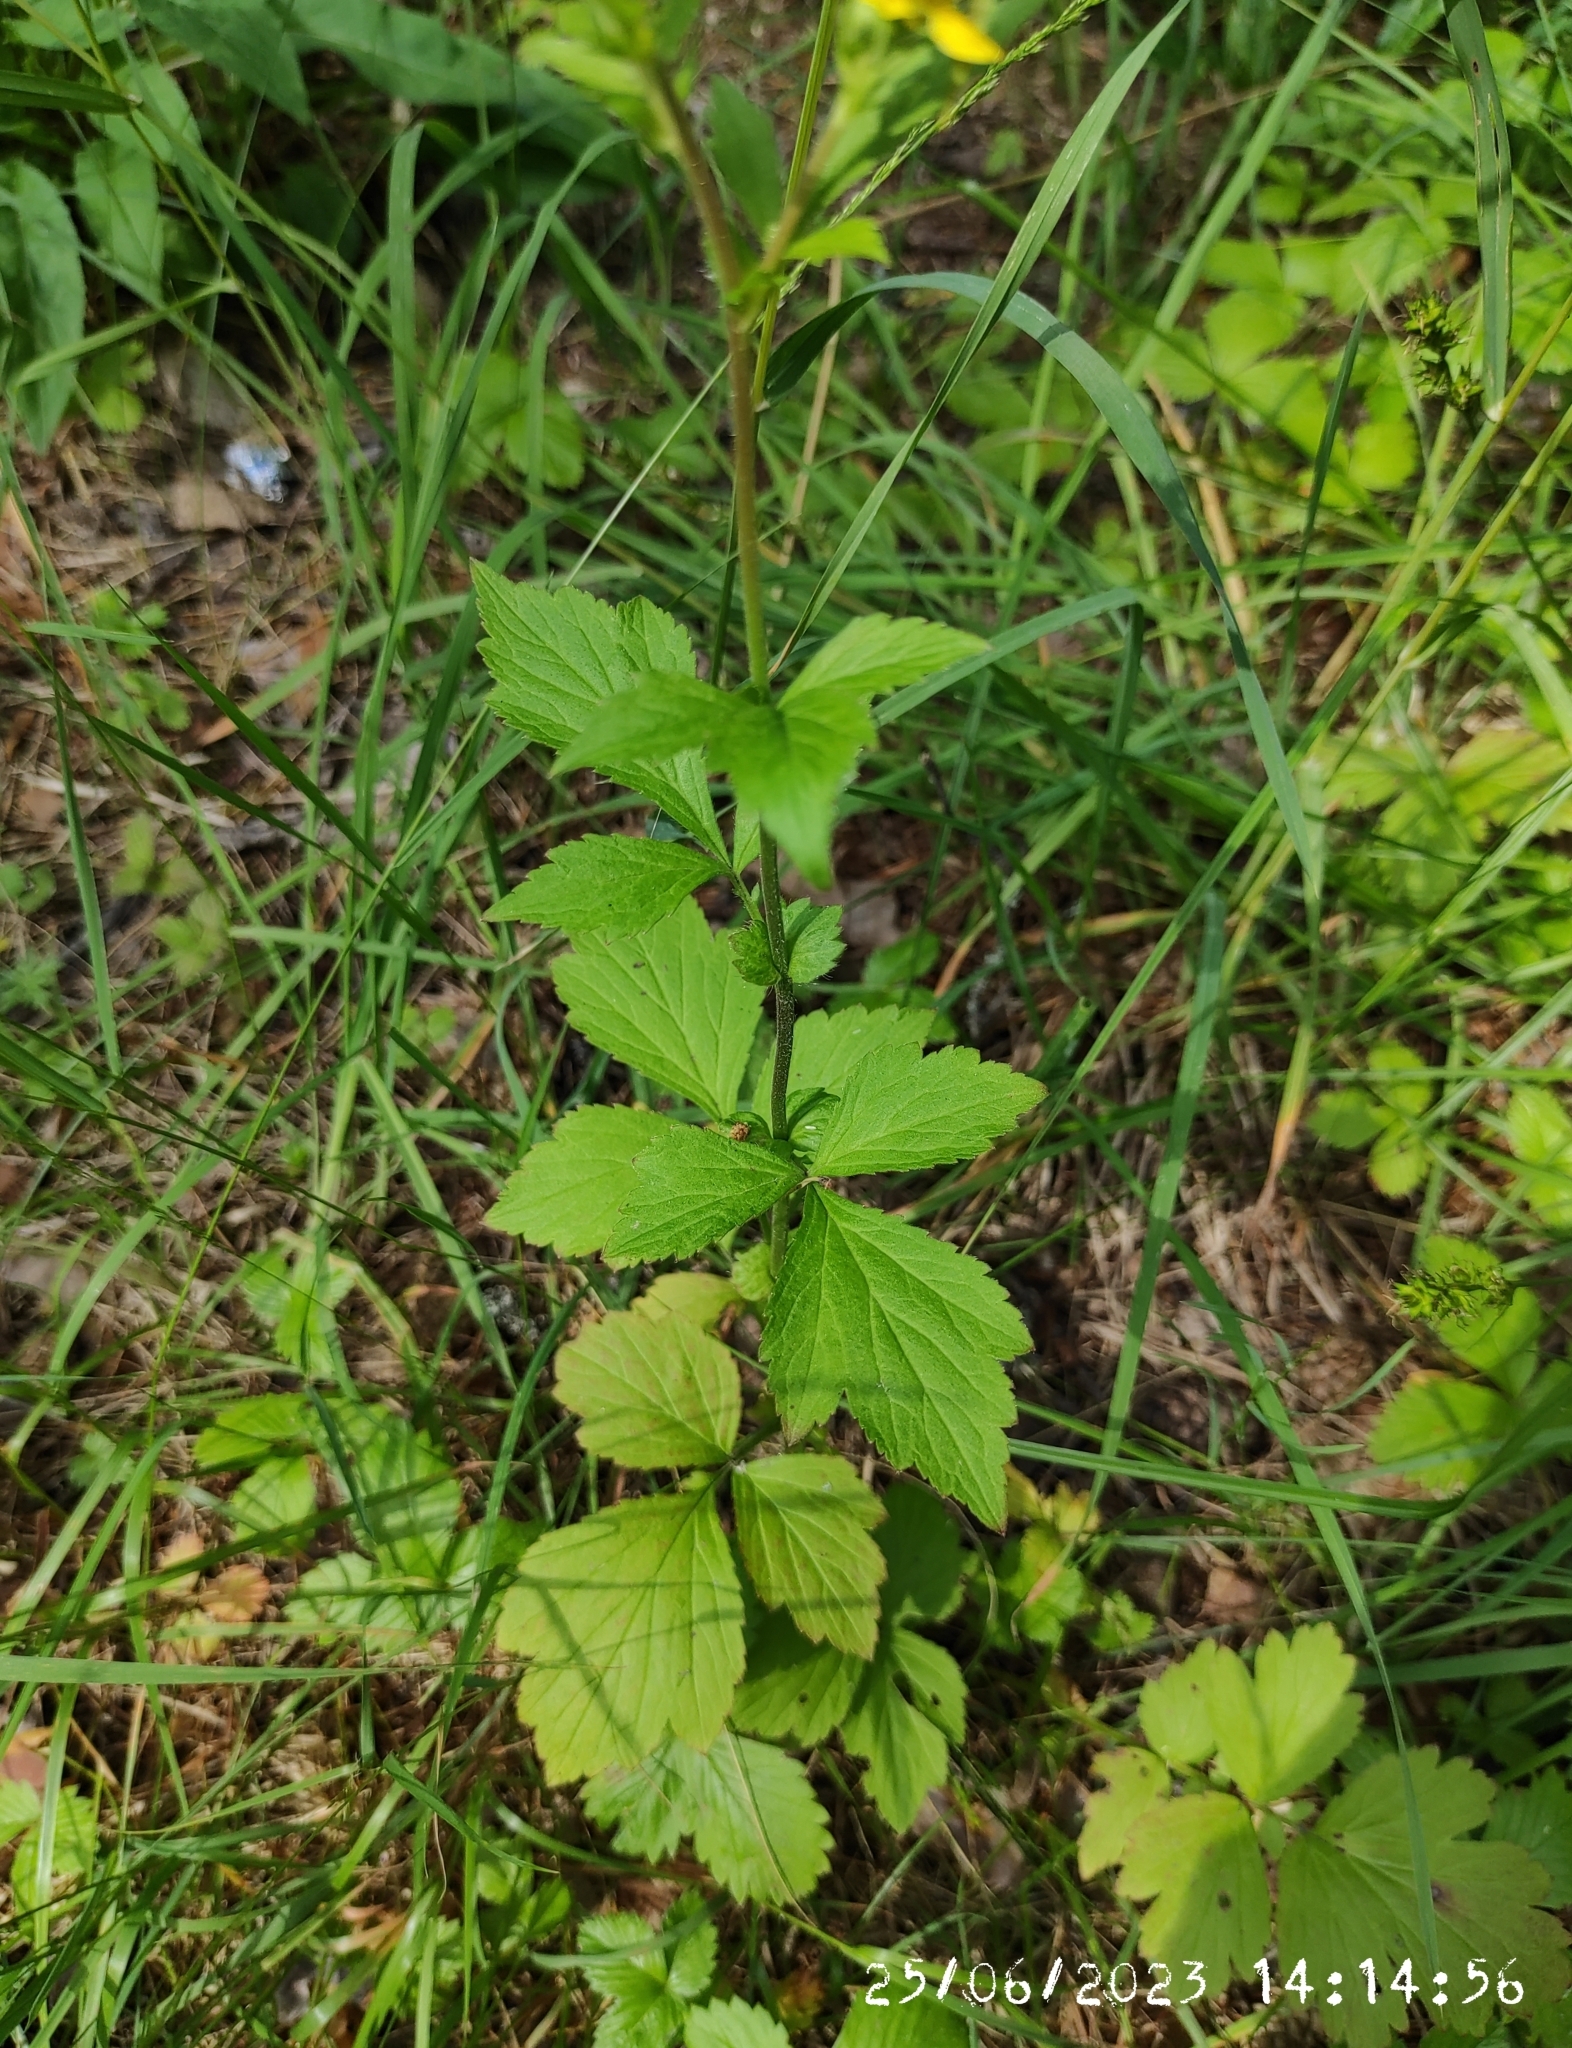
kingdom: Plantae
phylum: Tracheophyta
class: Magnoliopsida
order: Rosales
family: Rosaceae
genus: Geum
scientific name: Geum aleppicum
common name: Yellow avens
